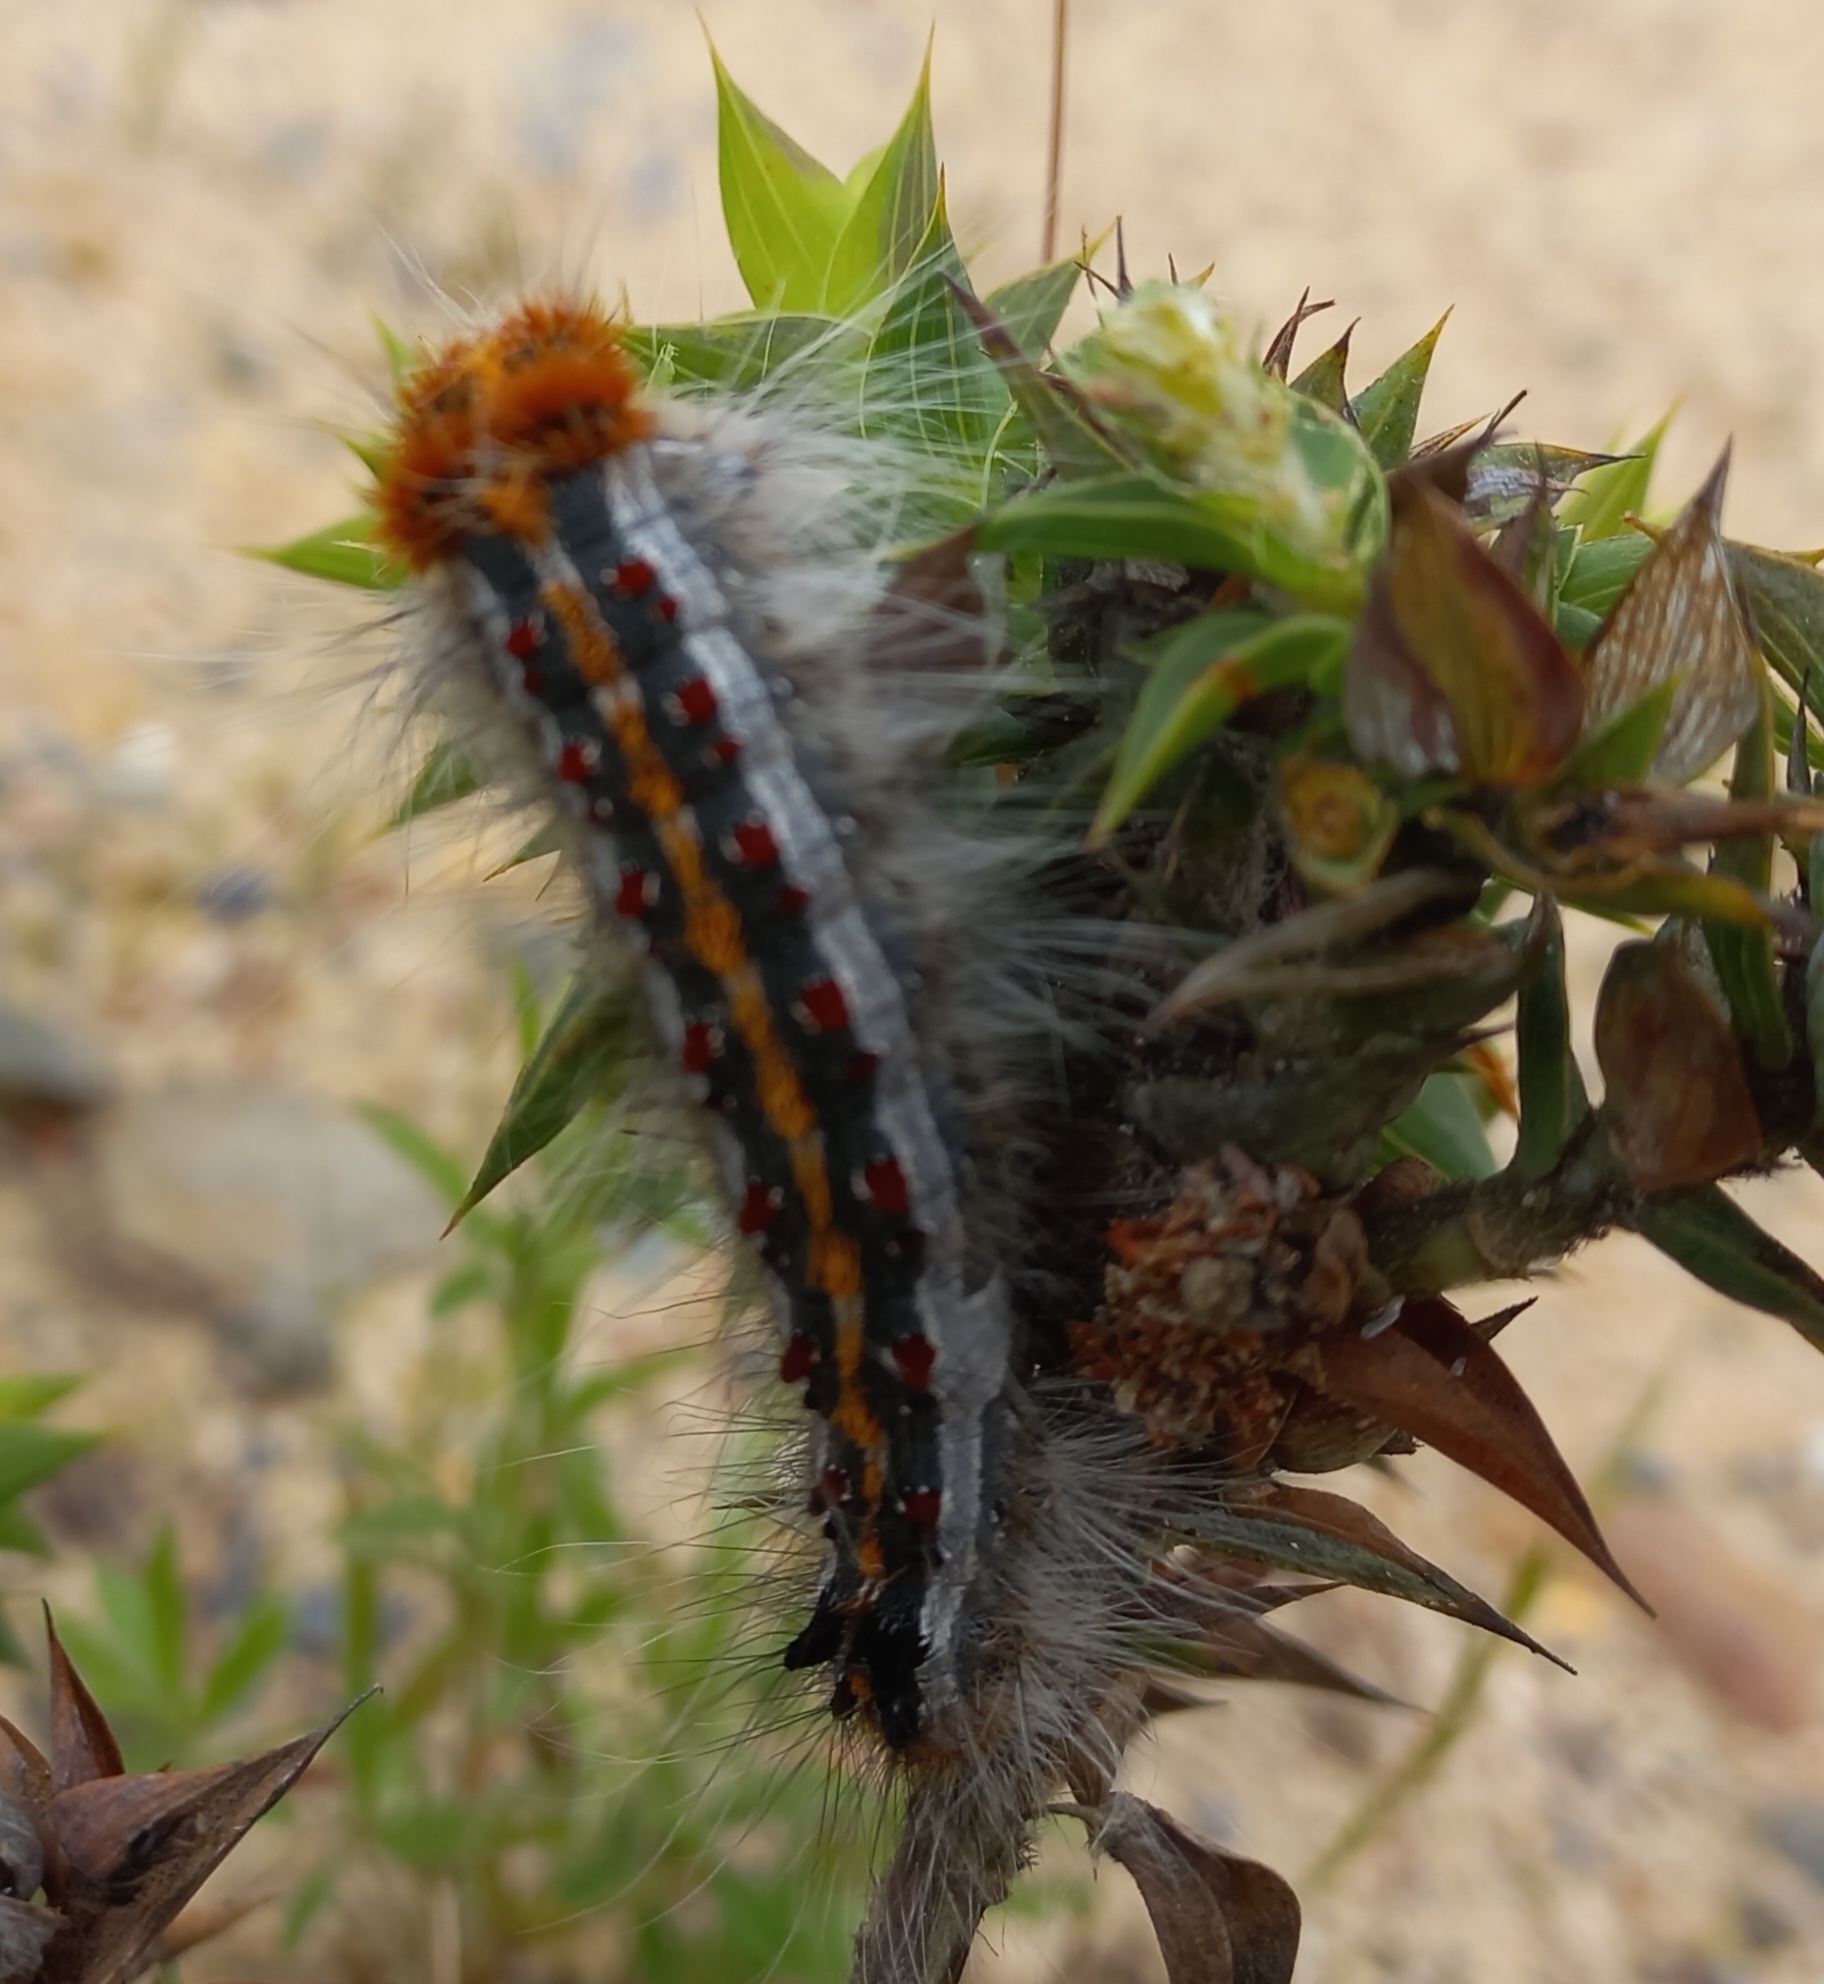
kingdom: Animalia
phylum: Arthropoda
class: Insecta
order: Lepidoptera
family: Lasiocampidae
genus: Streblote
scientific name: Streblote cristata
